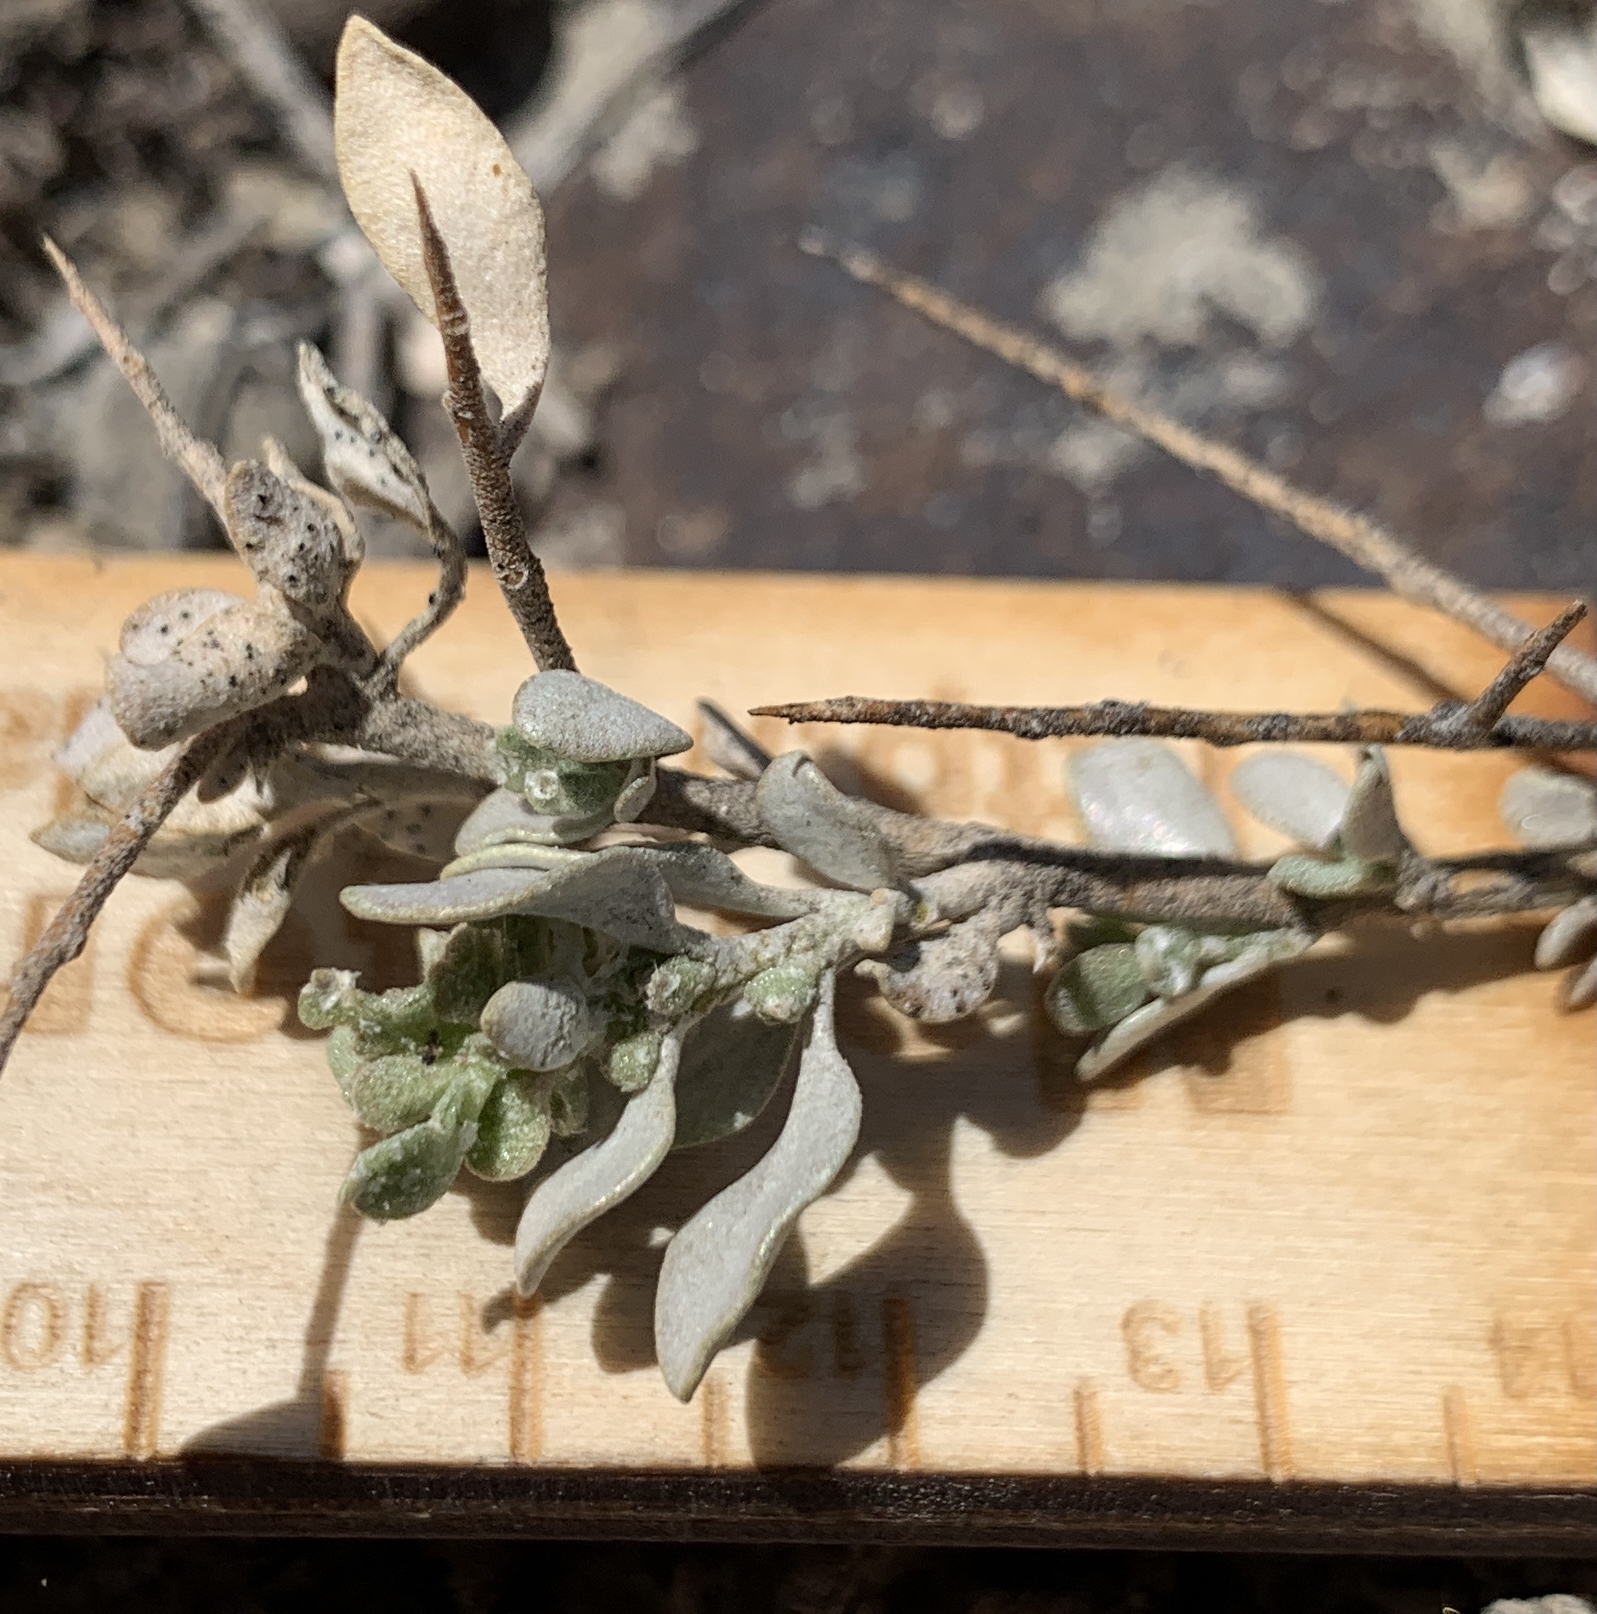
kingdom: Plantae
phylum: Tracheophyta
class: Magnoliopsida
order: Caryophyllales
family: Amaranthaceae
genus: Atriplex
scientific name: Atriplex confertifolia
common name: Shadscale
